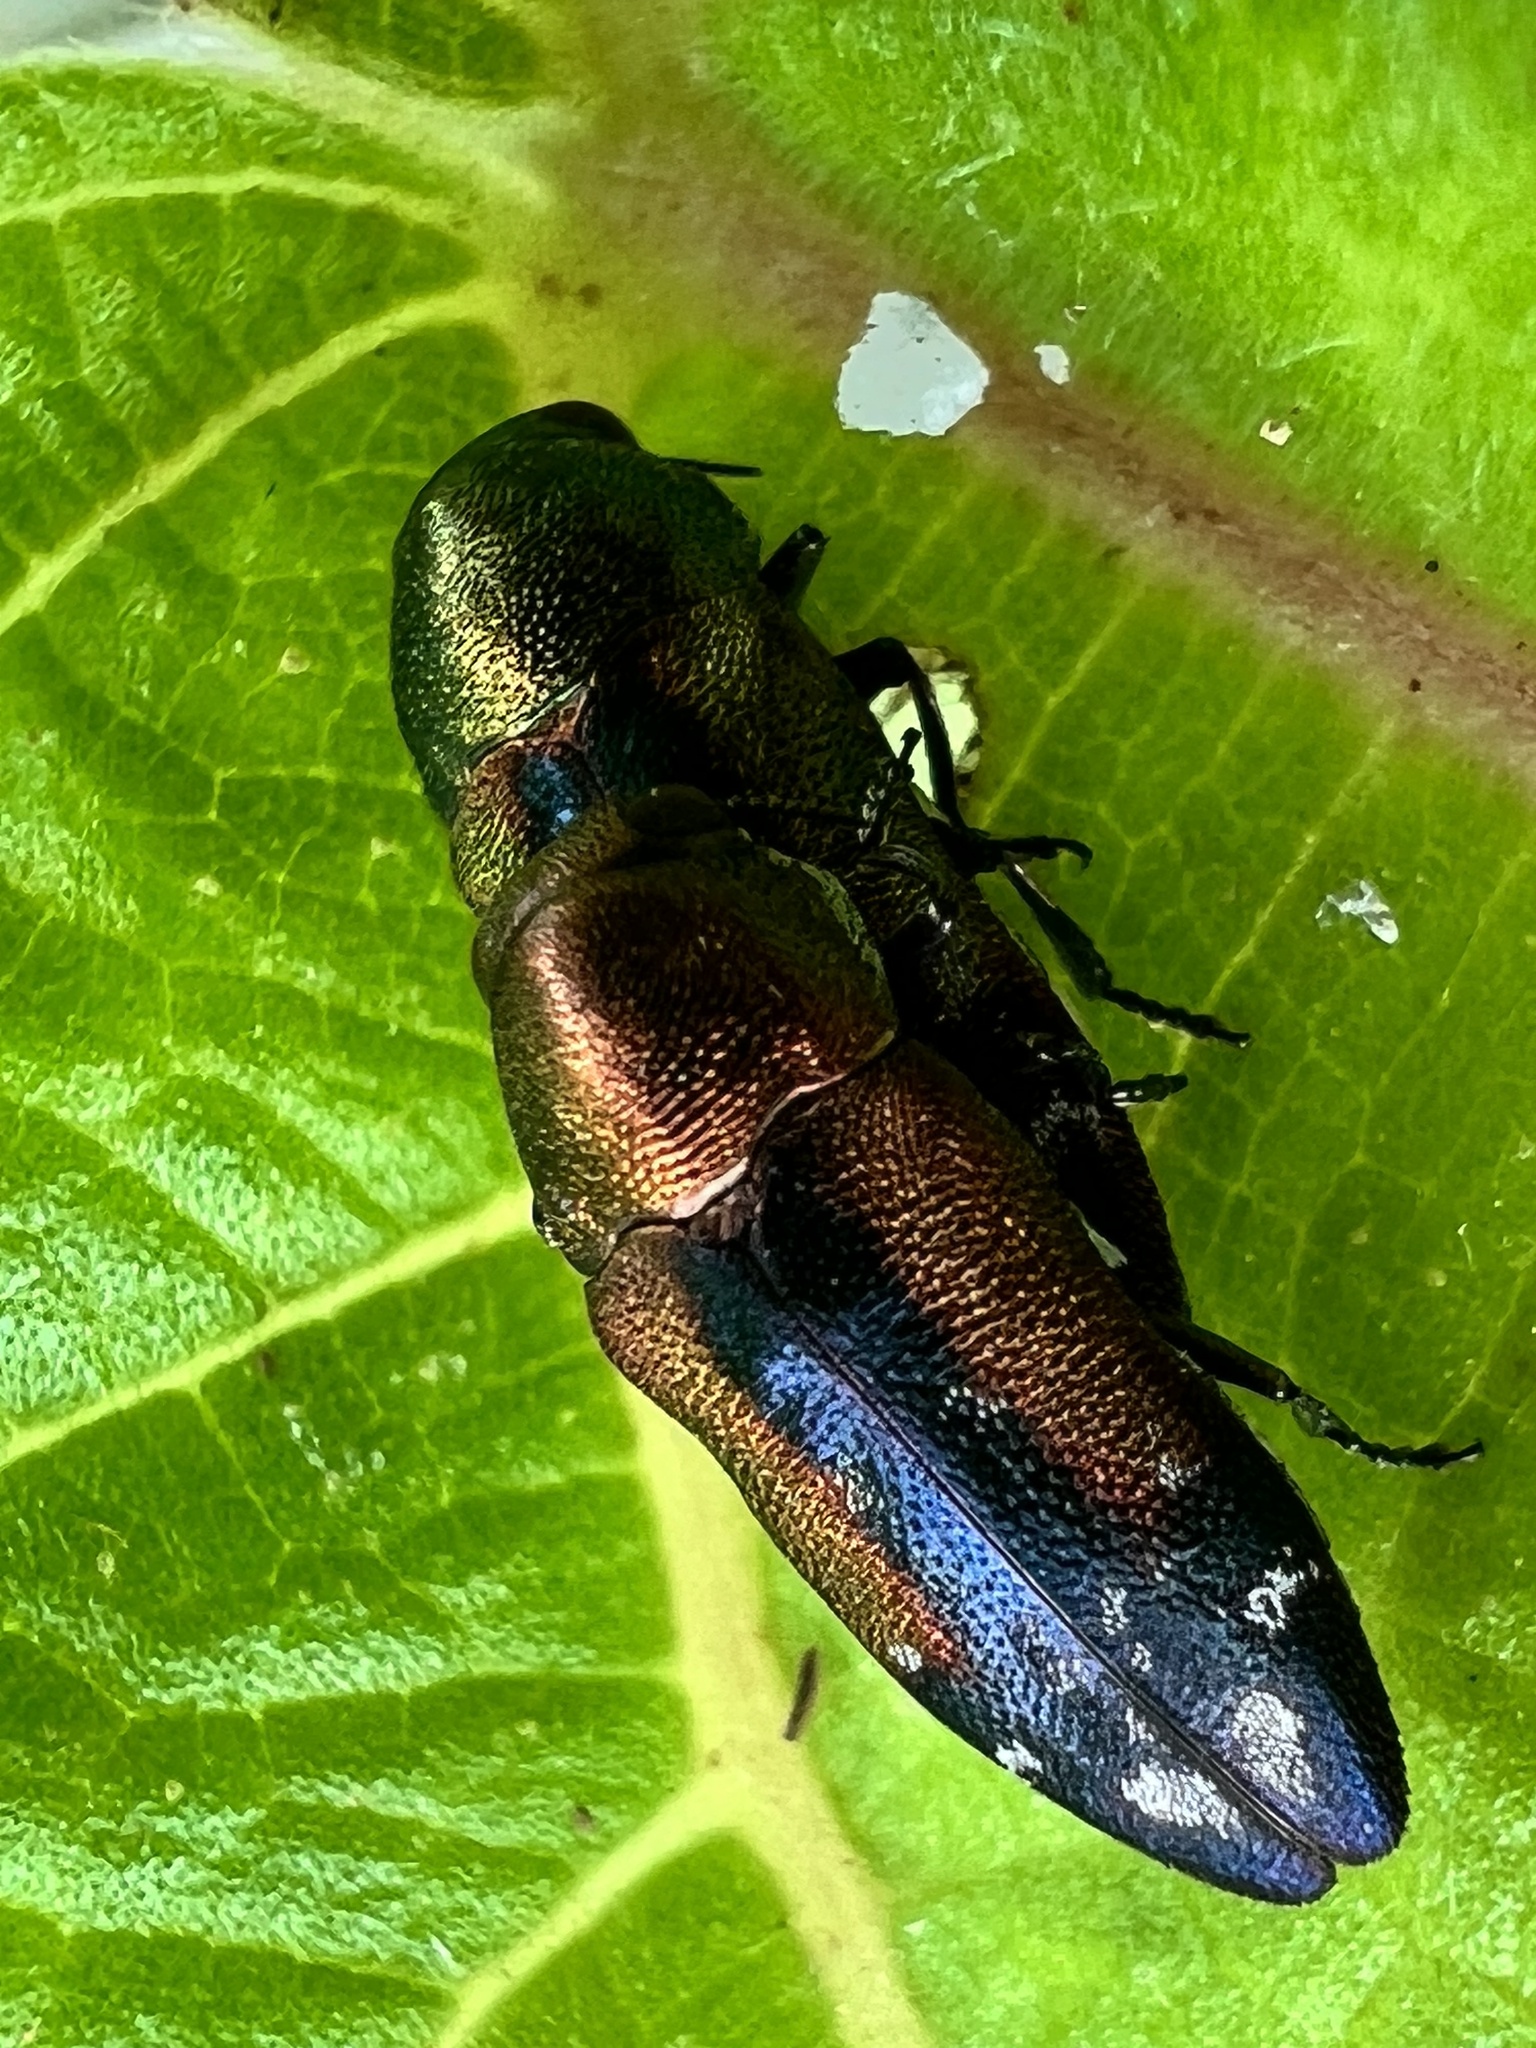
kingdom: Animalia
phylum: Arthropoda
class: Insecta
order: Coleoptera
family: Buprestidae
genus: Neospades
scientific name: Neospades lateralis
